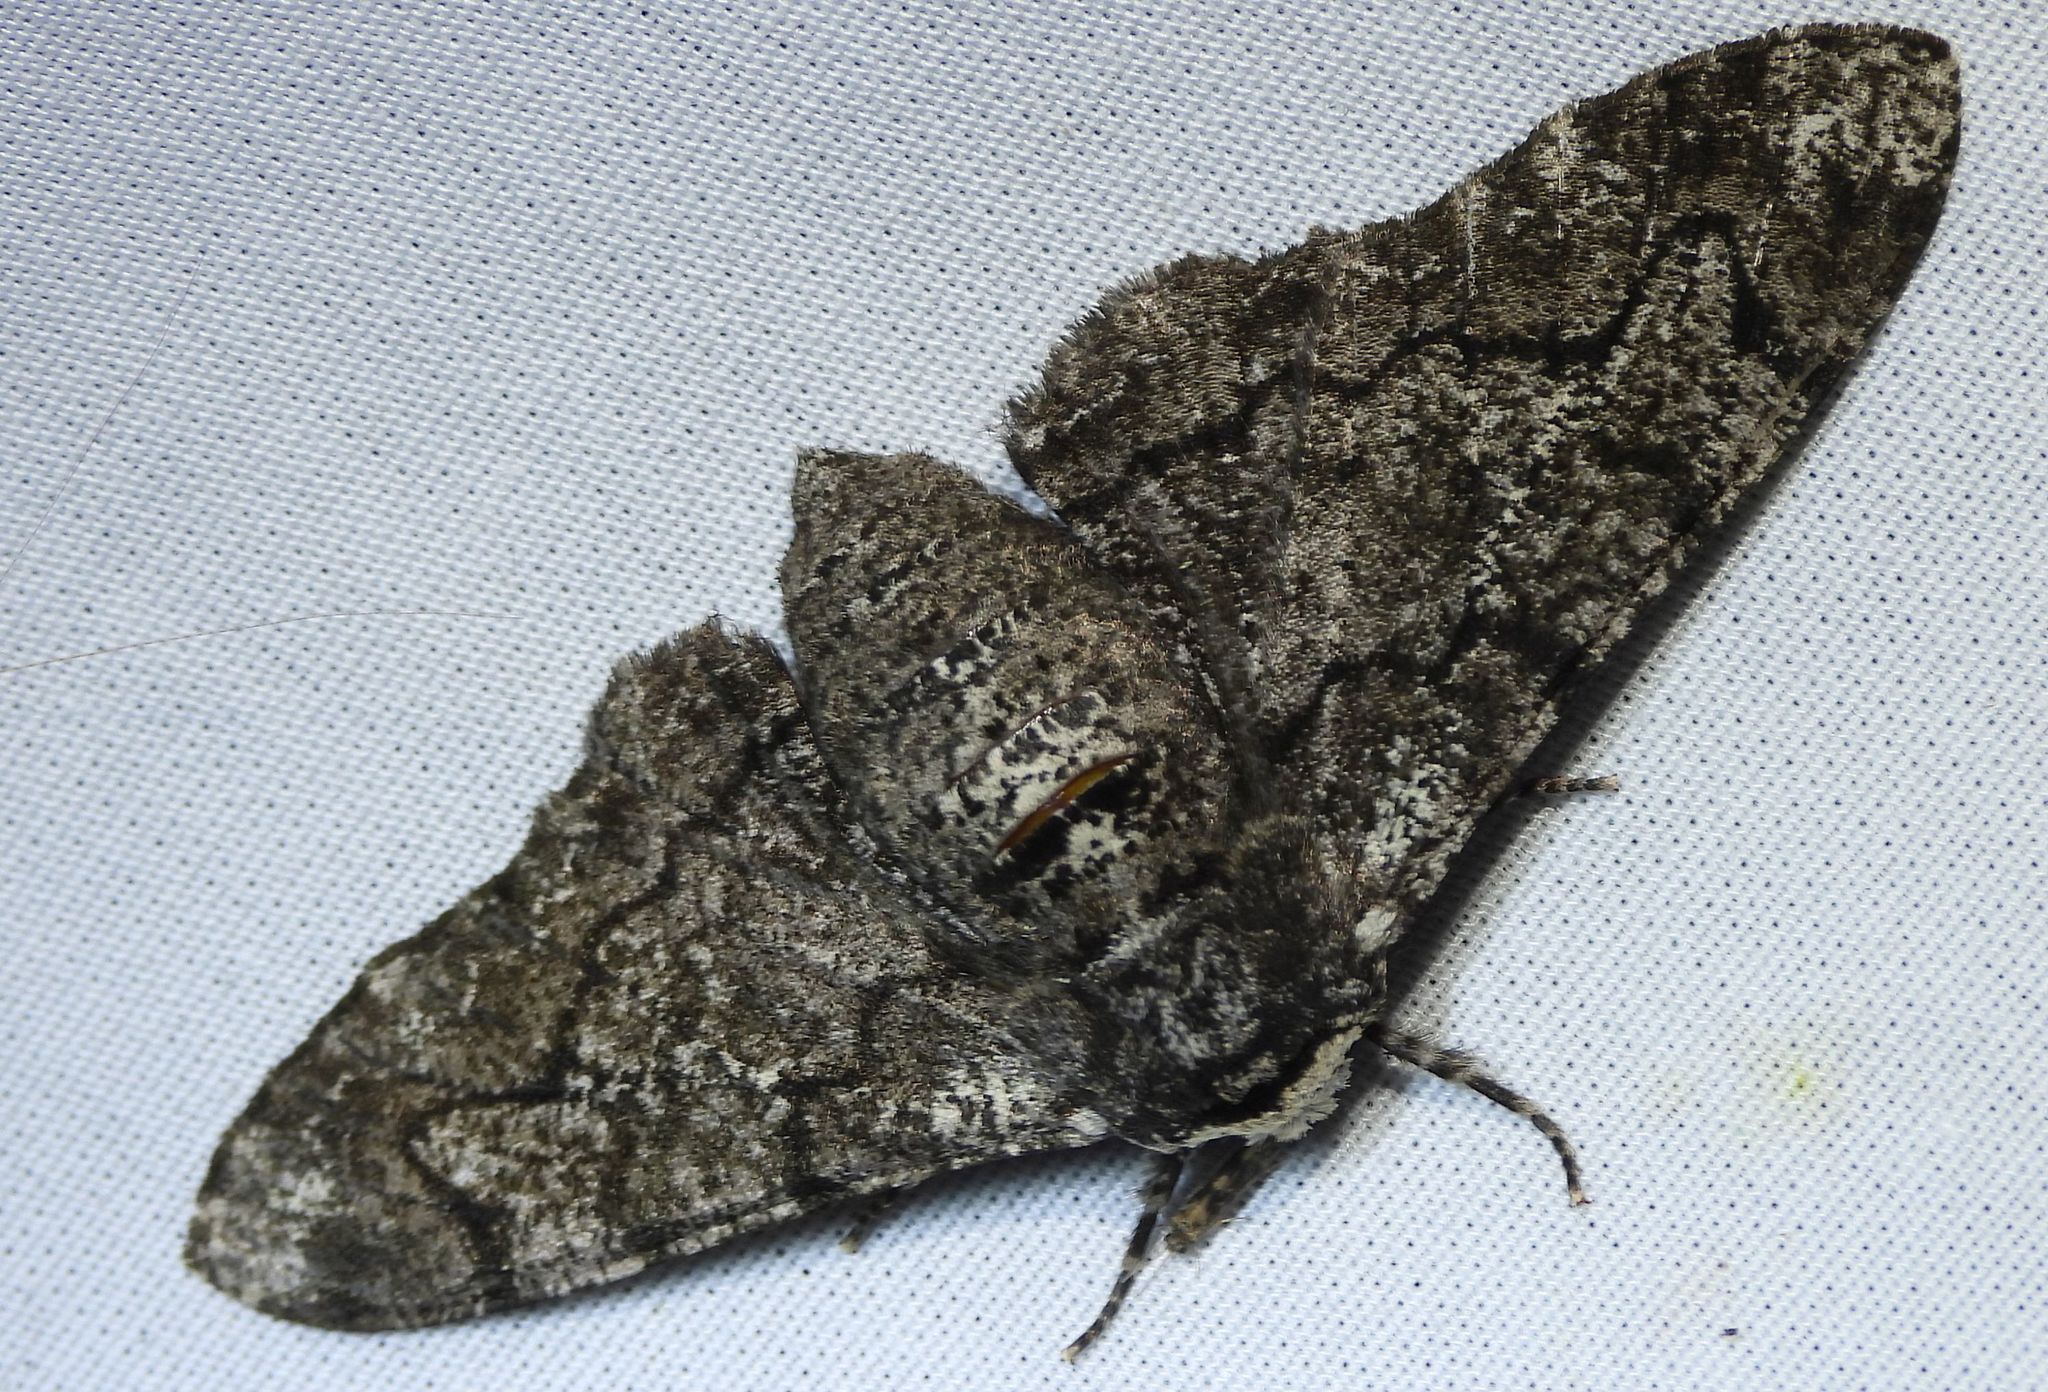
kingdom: Animalia
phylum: Arthropoda
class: Insecta
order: Lepidoptera
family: Geometridae
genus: Biston
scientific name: Biston betularia
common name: Peppered moth
